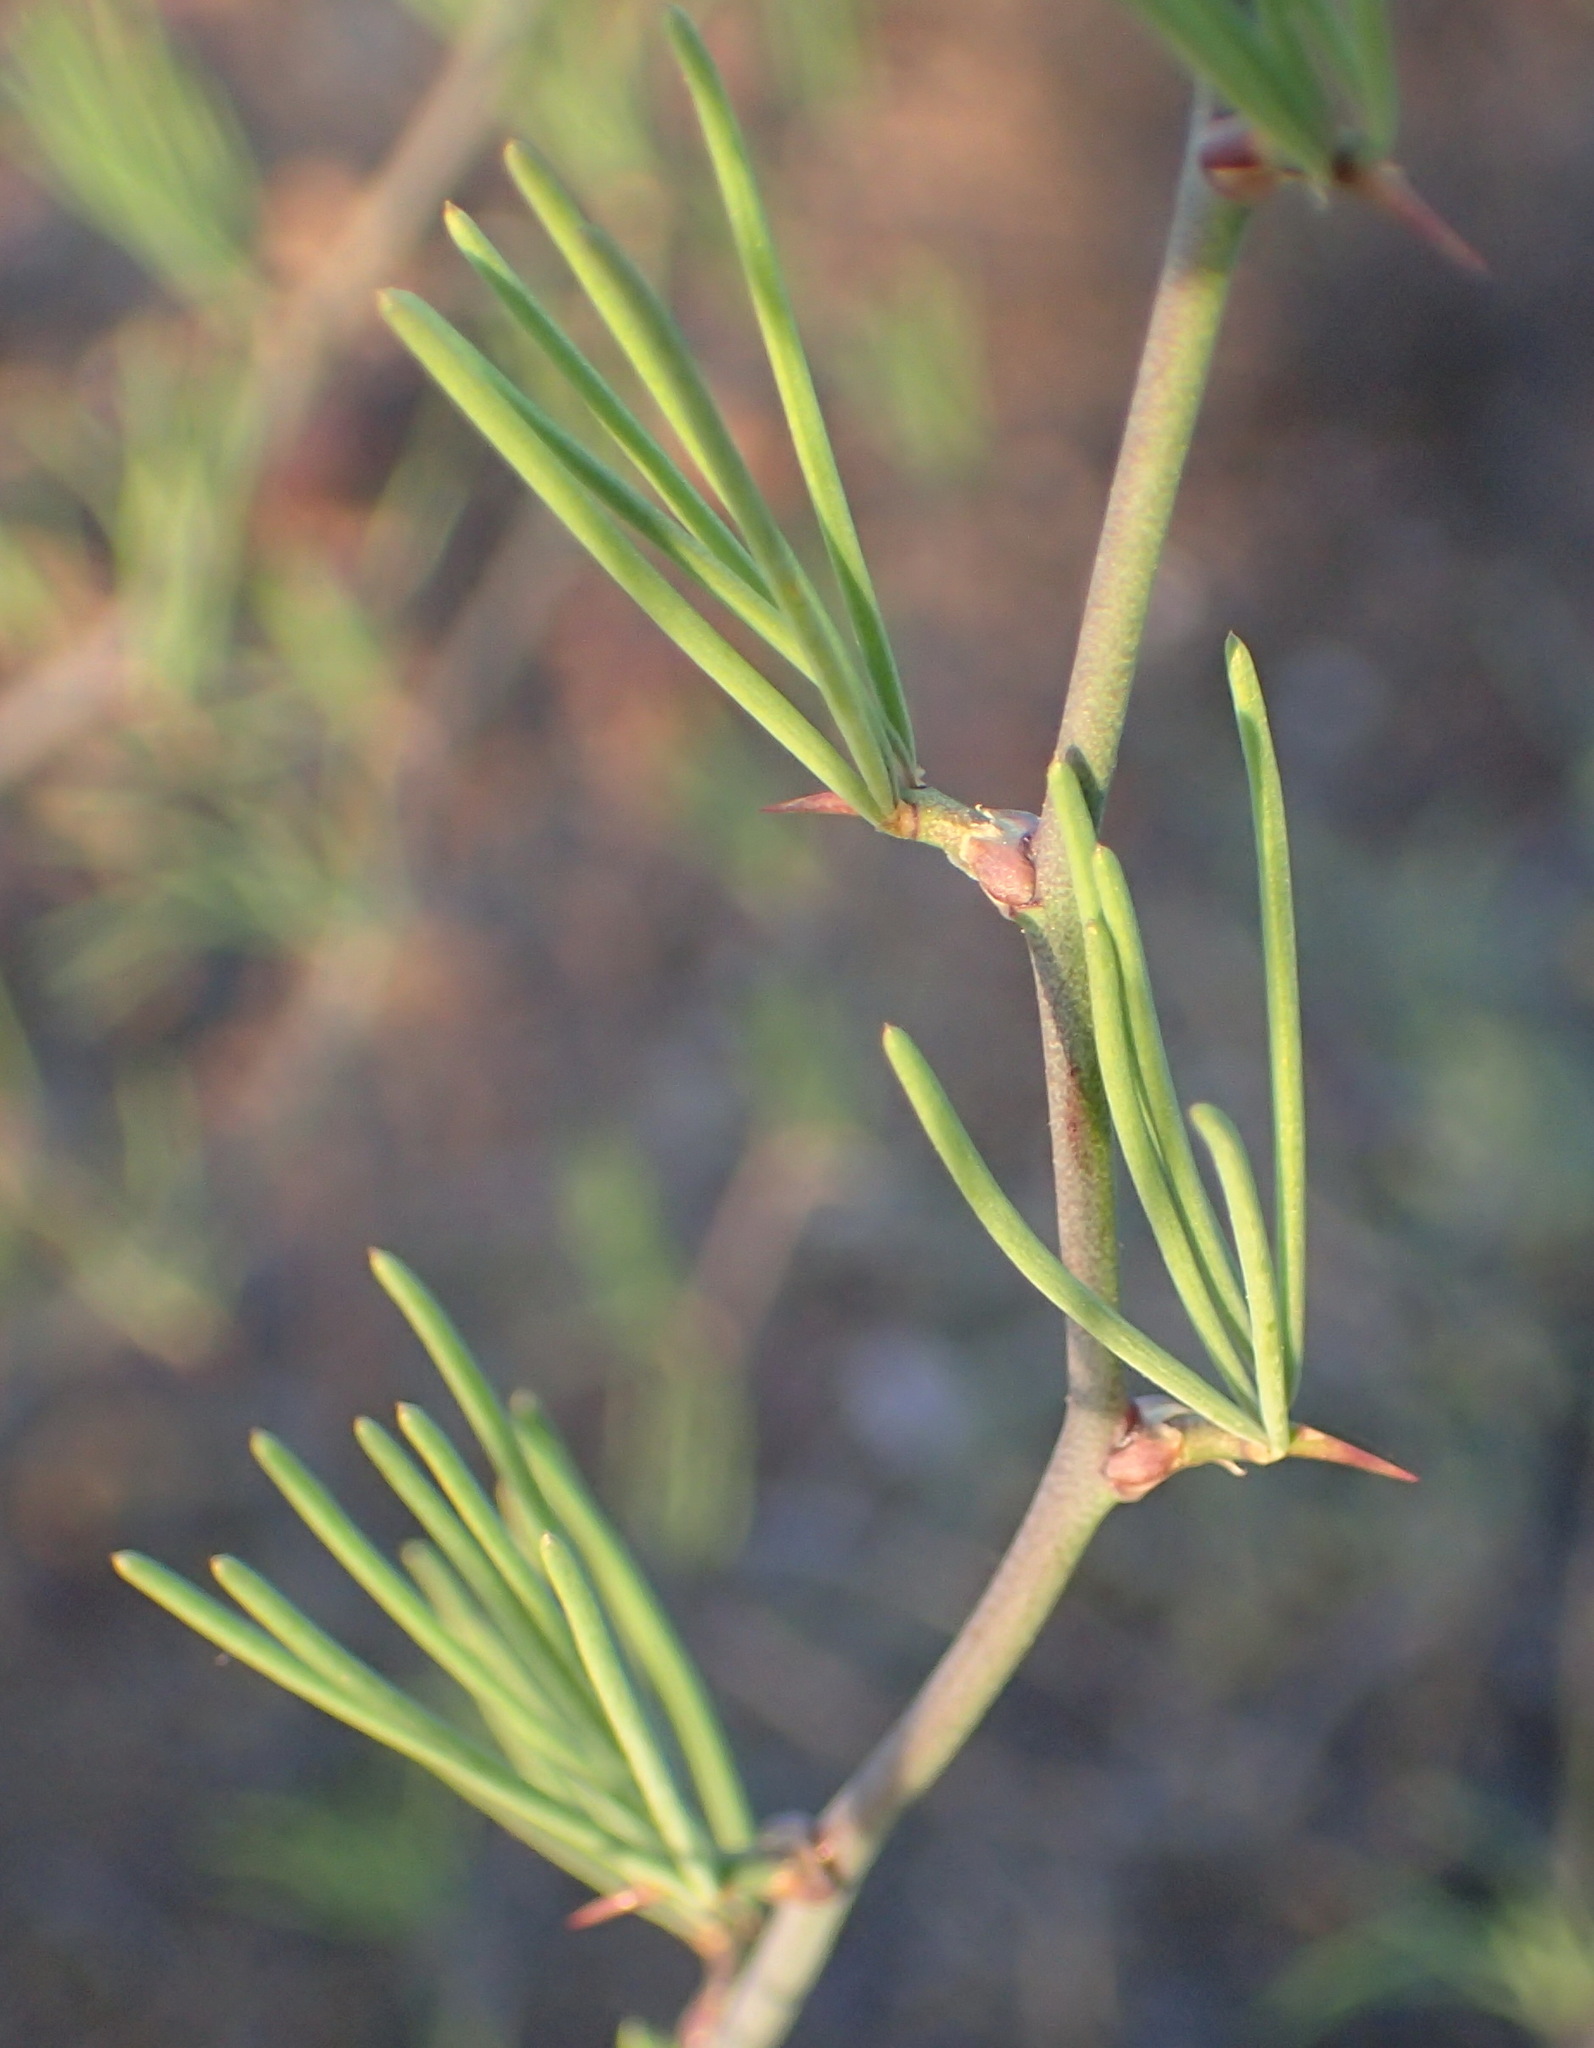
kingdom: Plantae
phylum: Tracheophyta
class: Liliopsida
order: Asparagales
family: Asparagaceae
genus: Asparagus
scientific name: Asparagus recurvispinus
